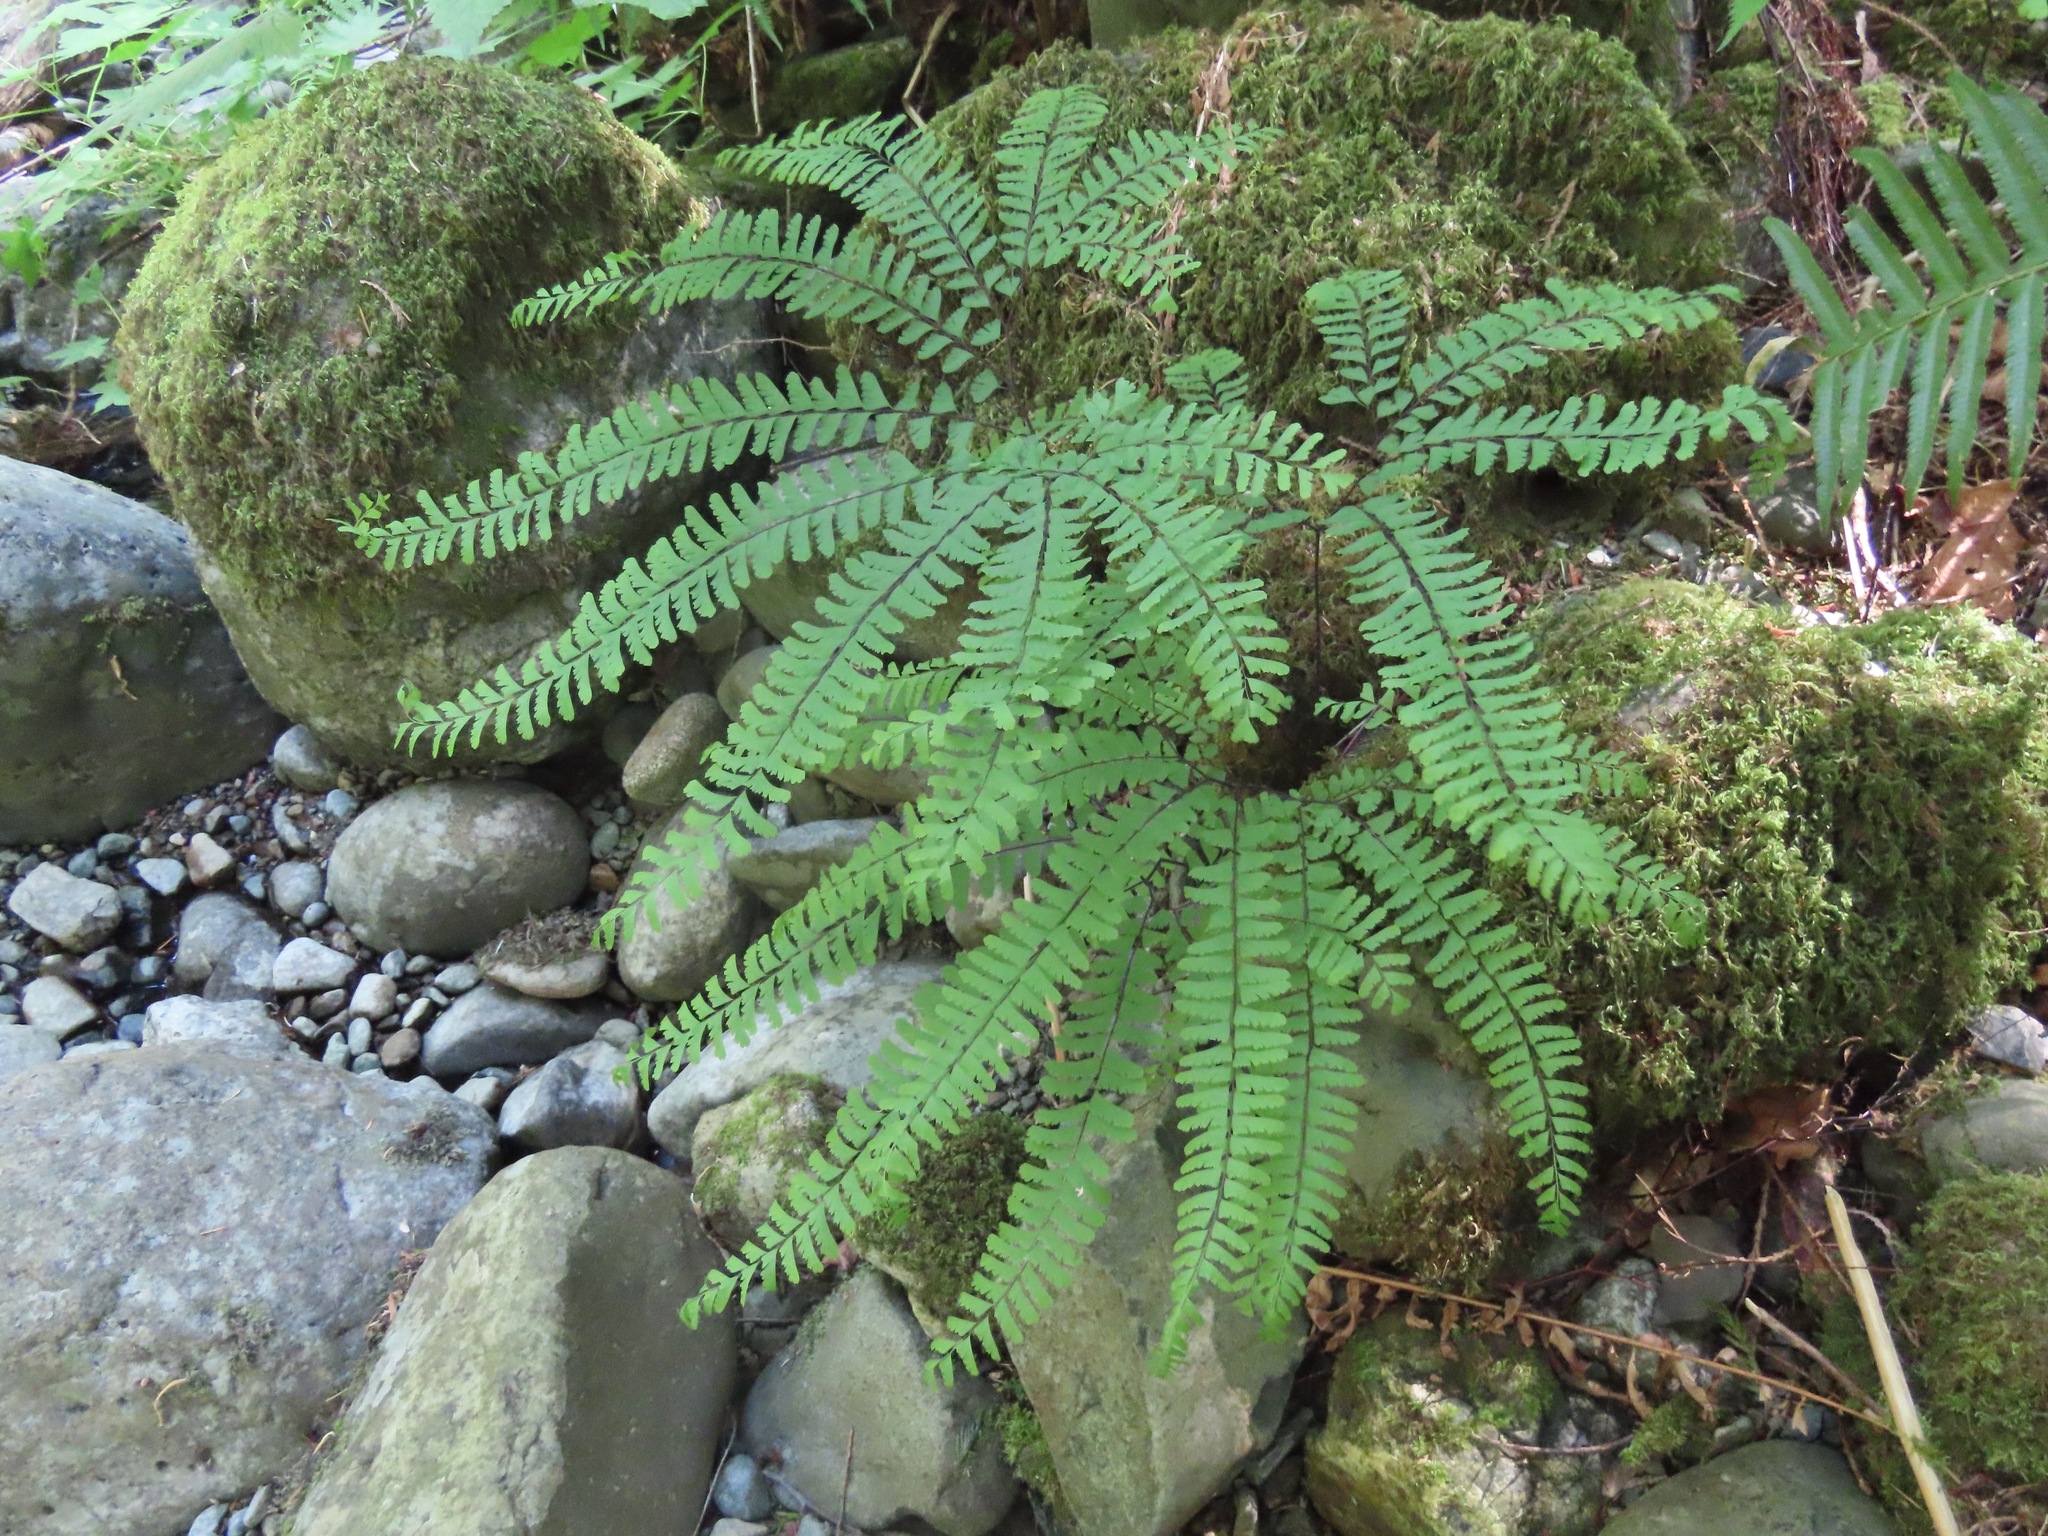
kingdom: Plantae
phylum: Tracheophyta
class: Polypodiopsida
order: Polypodiales
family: Pteridaceae
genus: Adiantum
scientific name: Adiantum aleuticum
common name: Aleutian maidenhair fern
